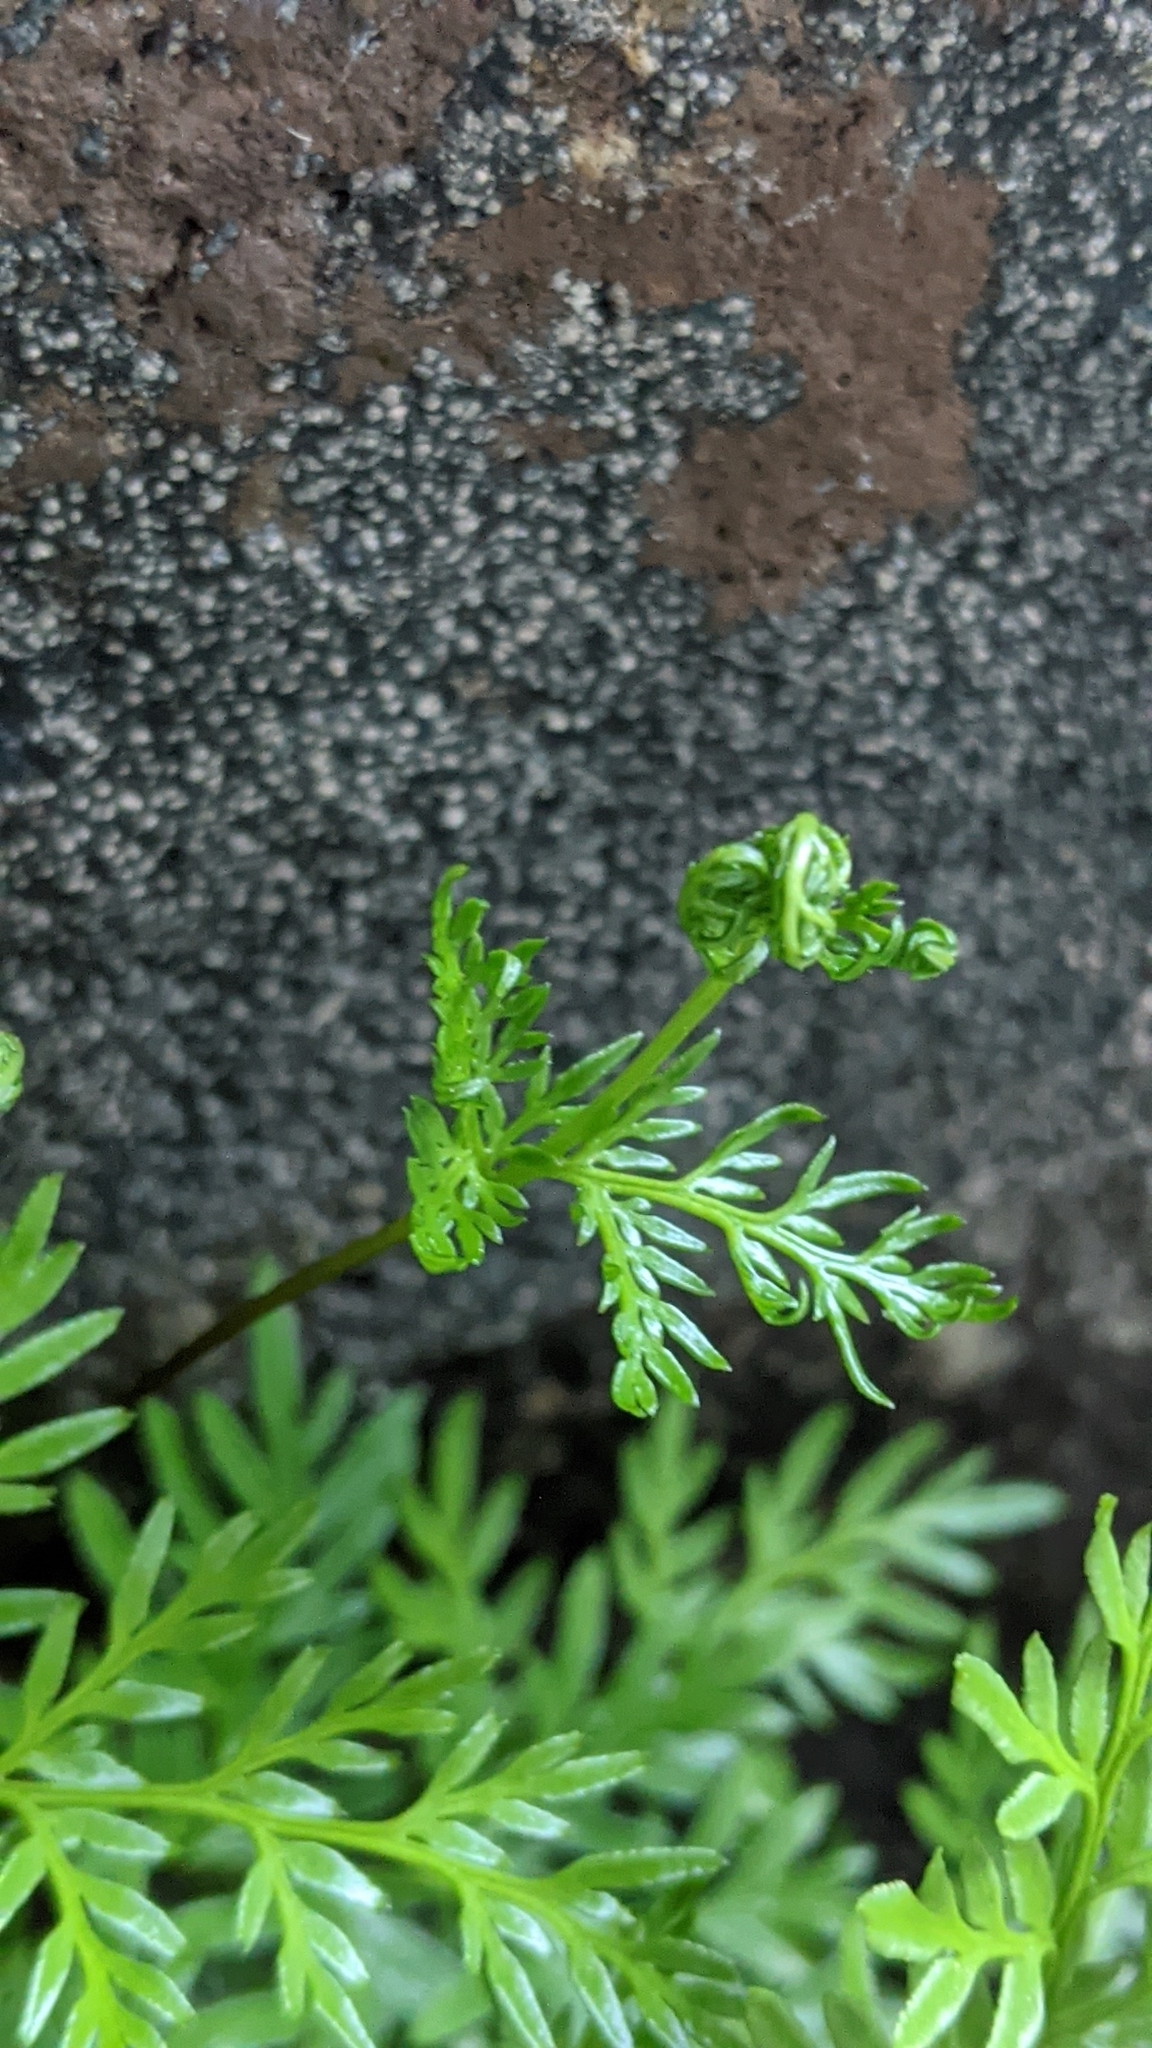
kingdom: Plantae
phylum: Tracheophyta
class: Polypodiopsida
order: Polypodiales
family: Pteridaceae
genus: Aspidotis
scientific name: Aspidotis densa
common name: Indian's dream
